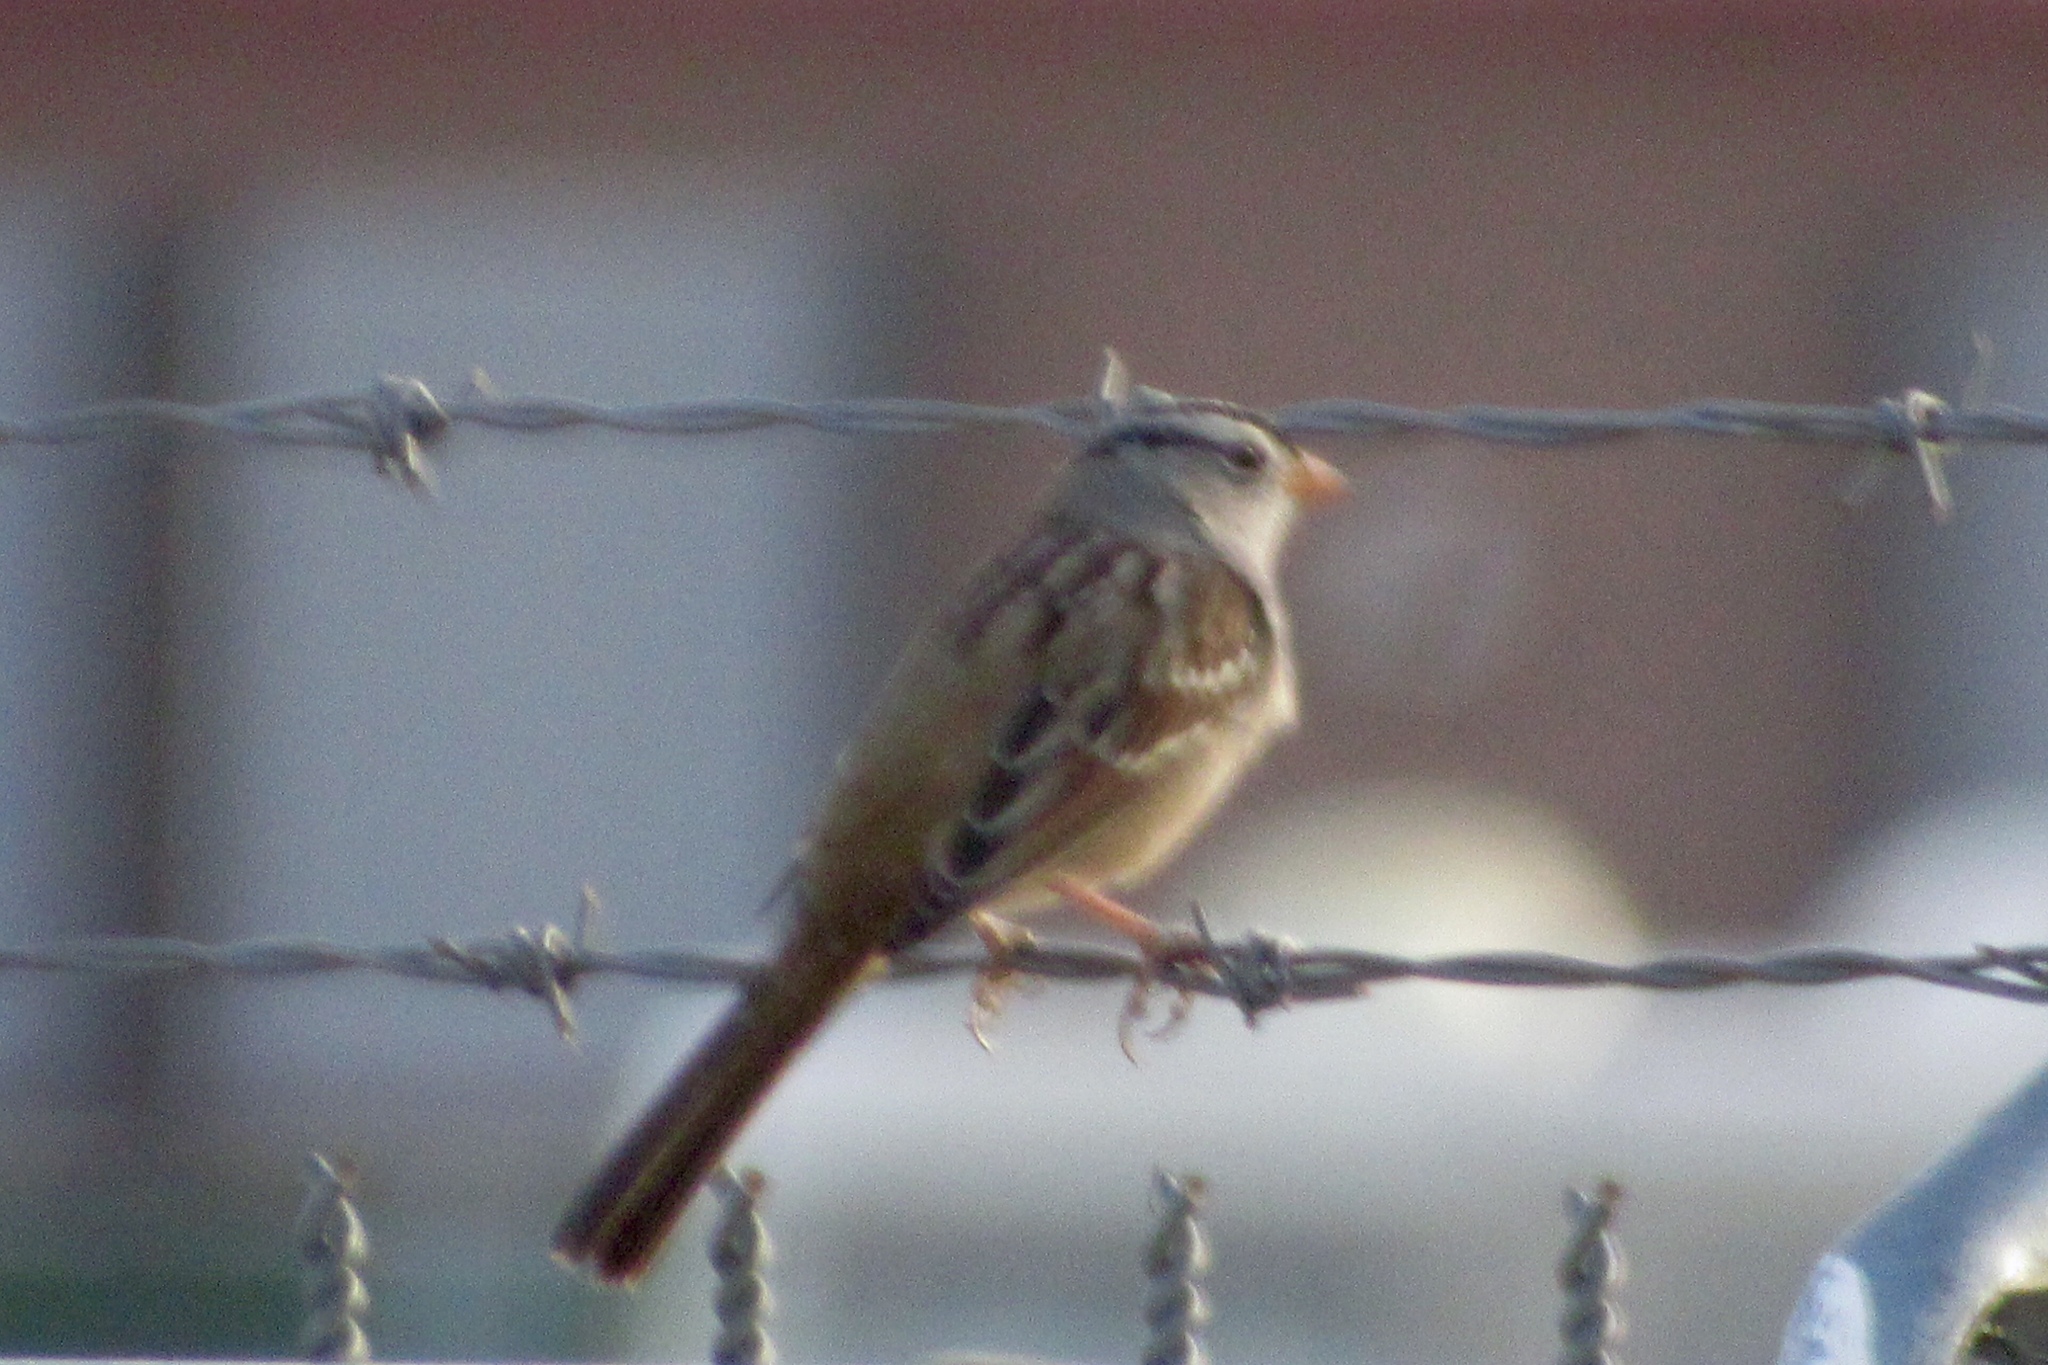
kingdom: Animalia
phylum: Chordata
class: Aves
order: Passeriformes
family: Passerellidae
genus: Zonotrichia
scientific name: Zonotrichia leucophrys
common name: White-crowned sparrow
